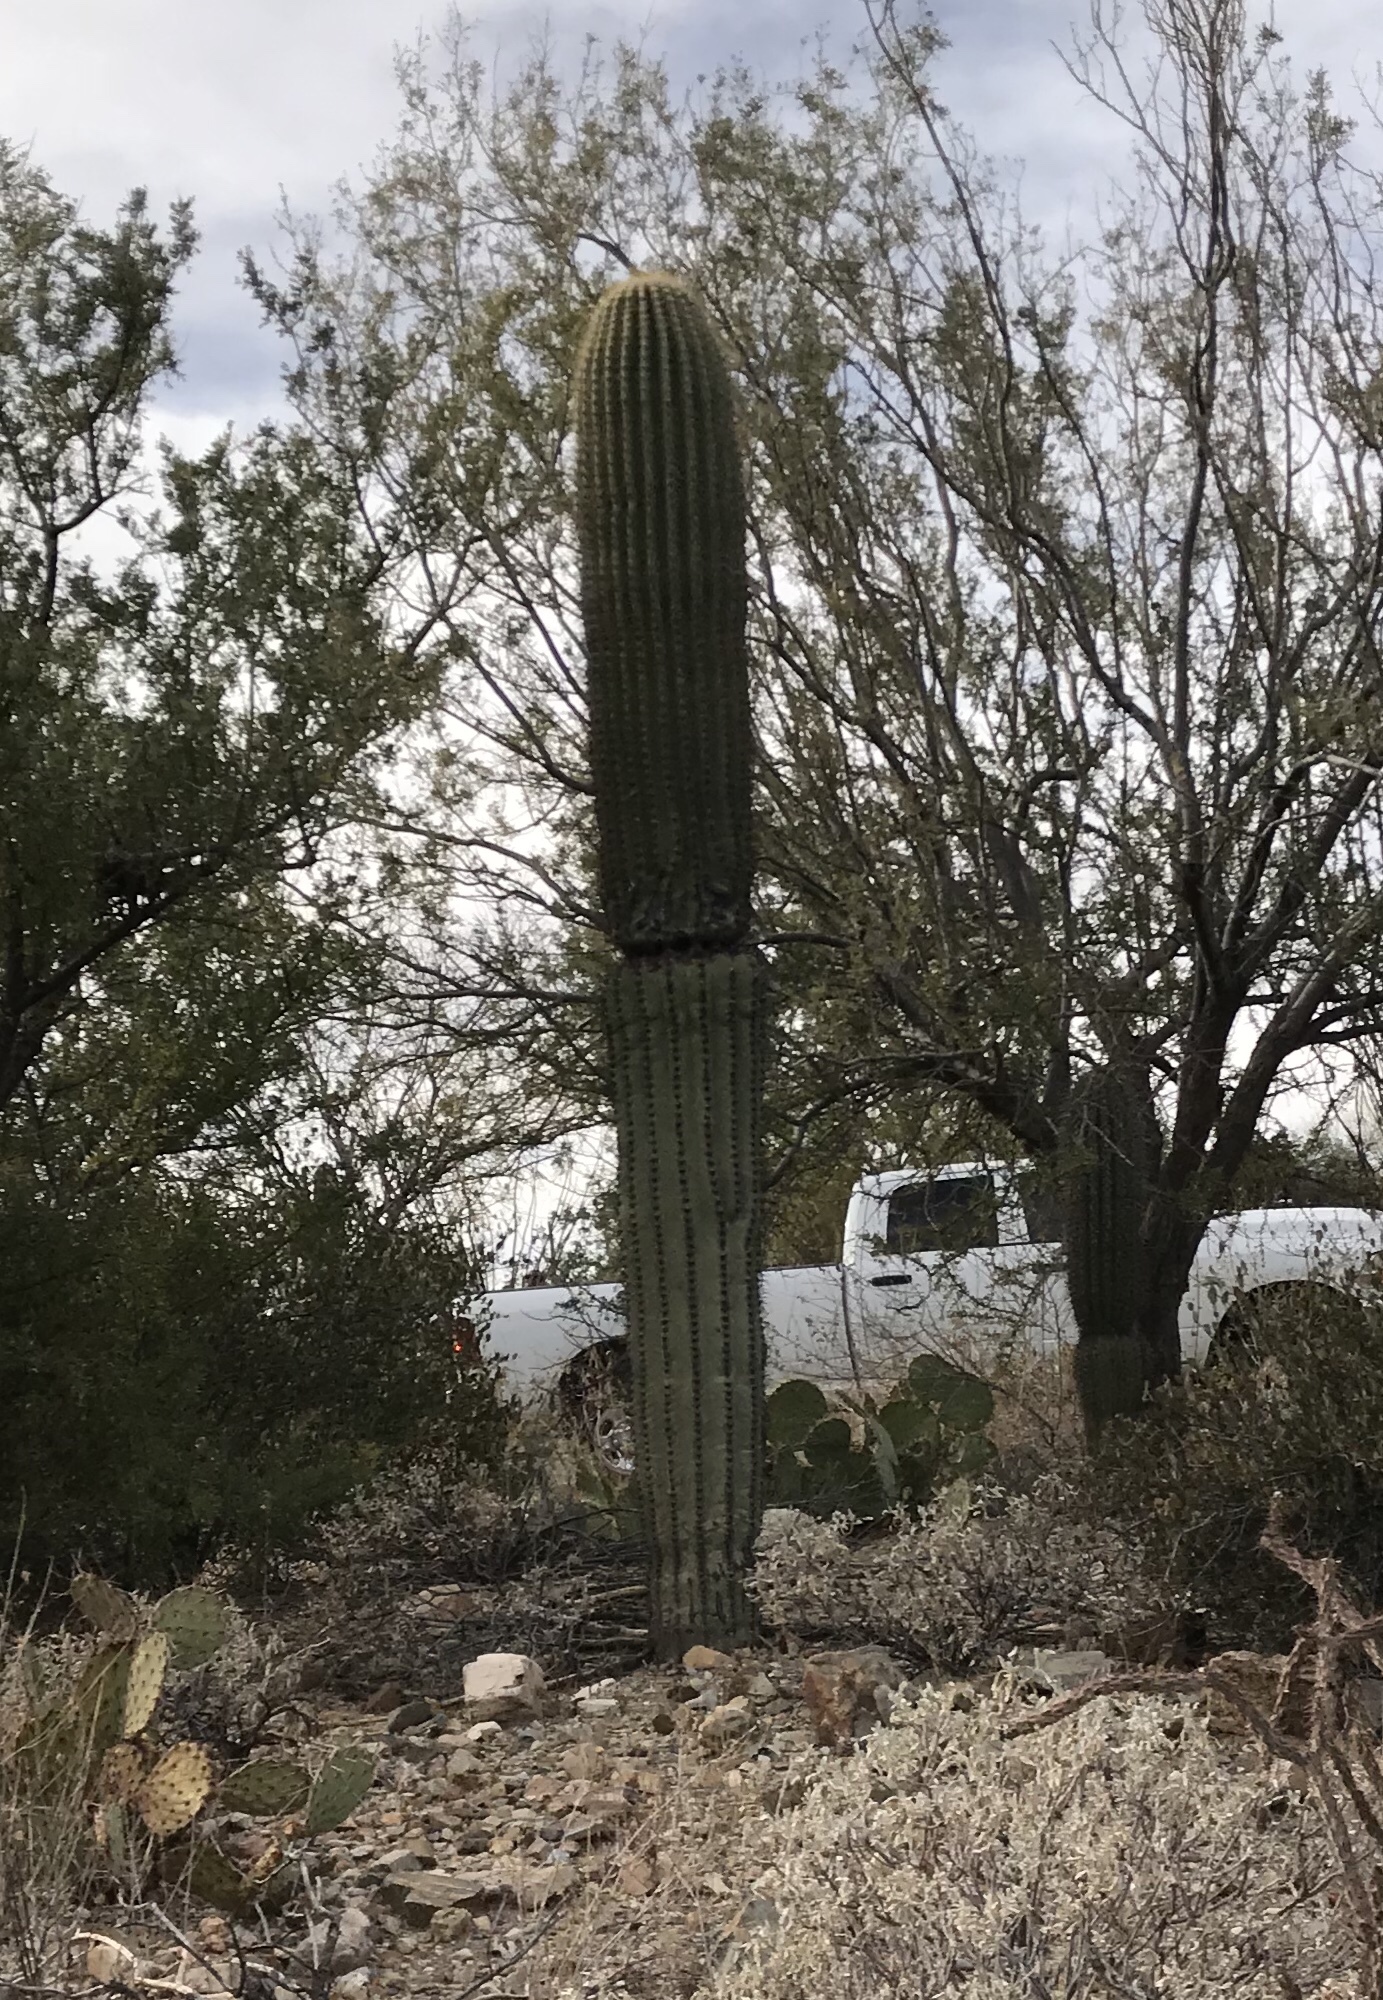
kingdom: Plantae
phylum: Tracheophyta
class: Magnoliopsida
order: Caryophyllales
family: Cactaceae
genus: Carnegiea
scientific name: Carnegiea gigantea
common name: Saguaro
